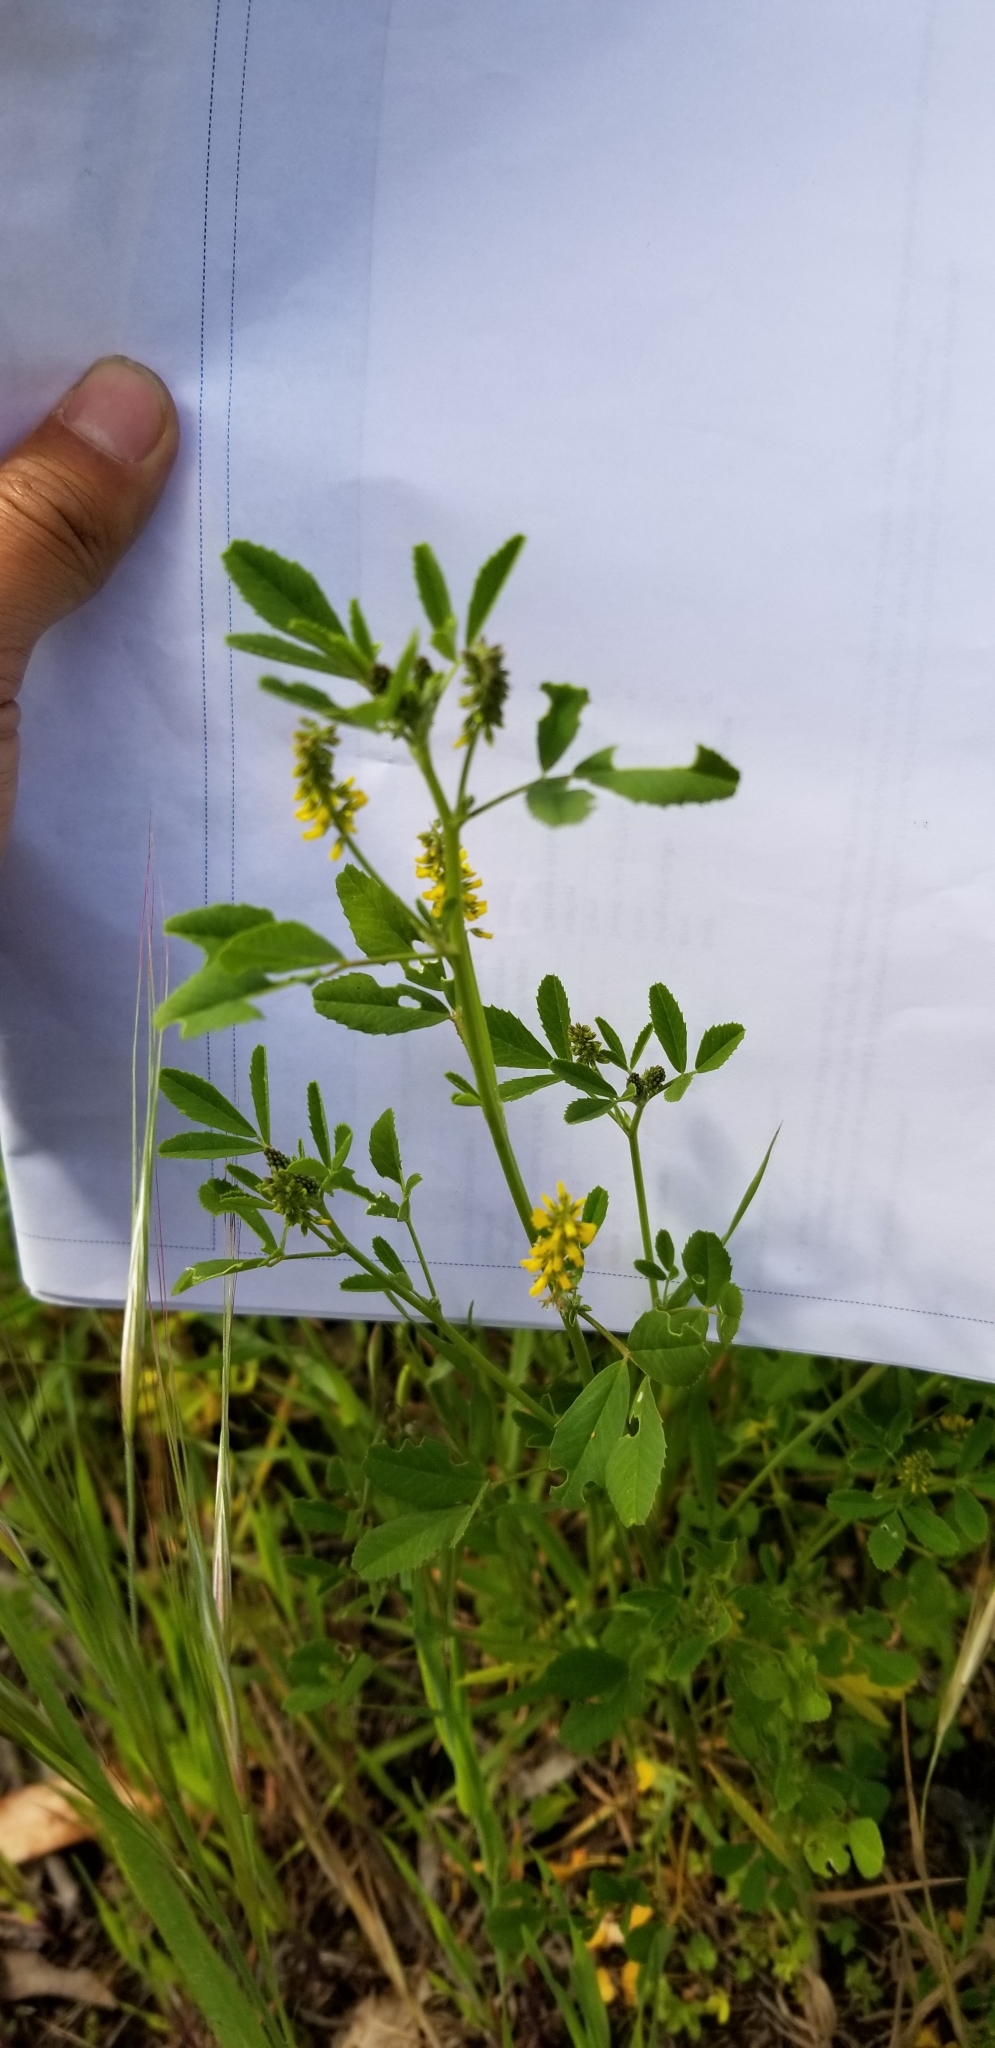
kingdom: Plantae
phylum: Tracheophyta
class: Magnoliopsida
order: Fabales
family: Fabaceae
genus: Melilotus
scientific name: Melilotus indicus
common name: Small melilot
